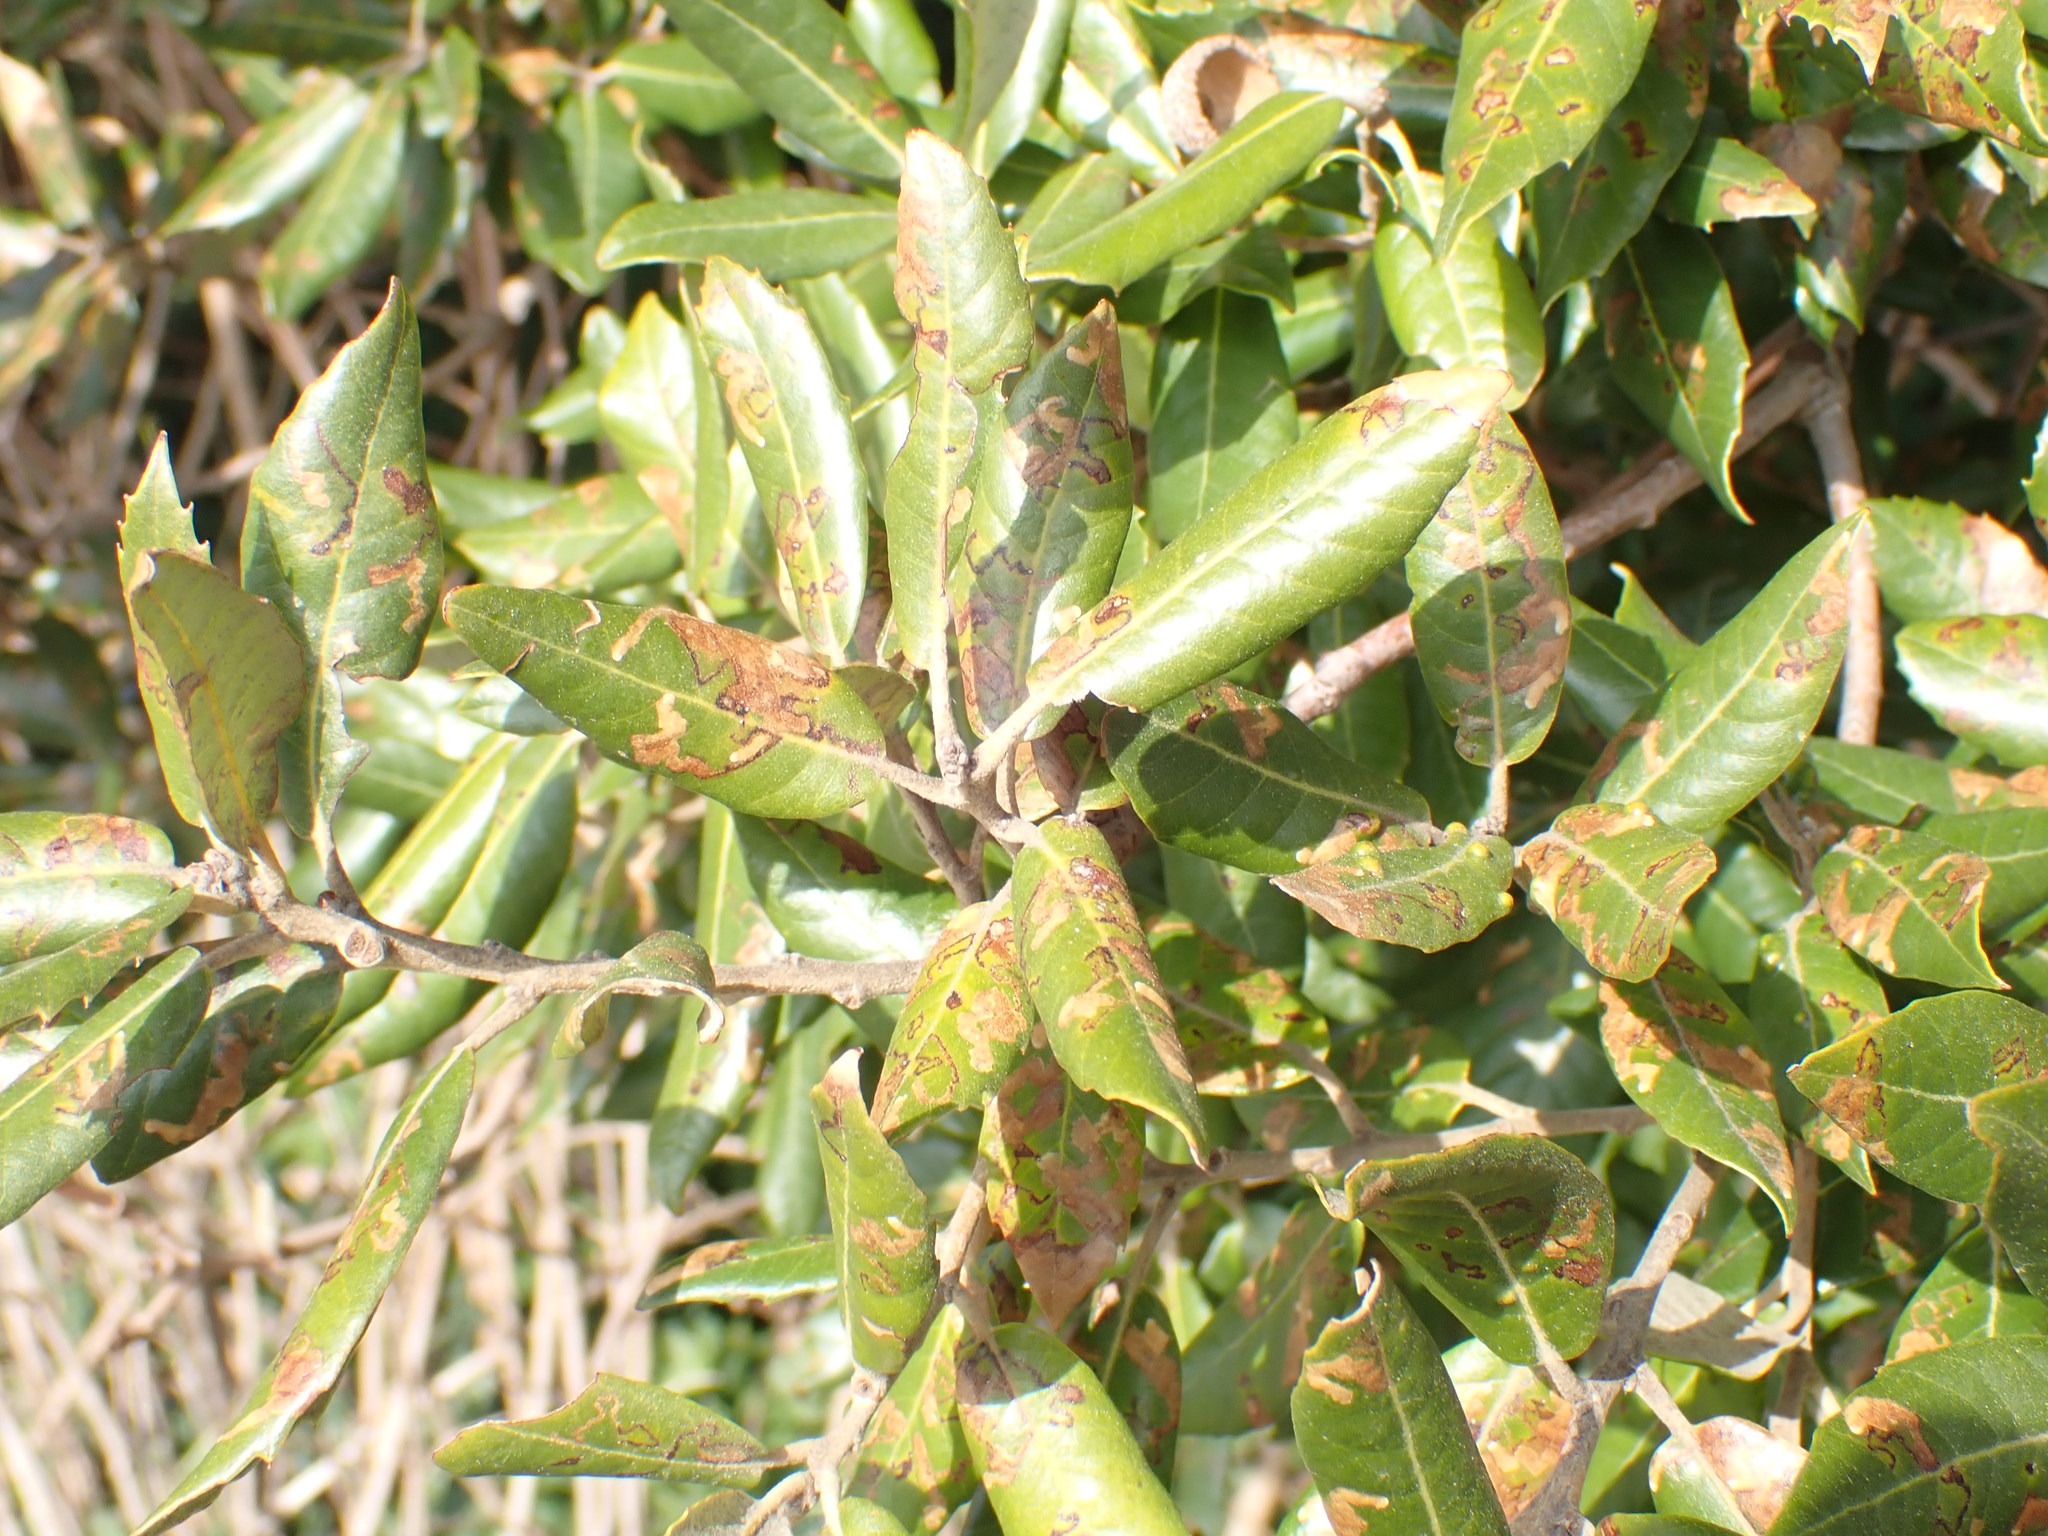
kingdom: Plantae
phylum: Tracheophyta
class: Magnoliopsida
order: Fagales
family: Fagaceae
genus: Quercus
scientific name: Quercus ilex
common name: Evergreen oak
